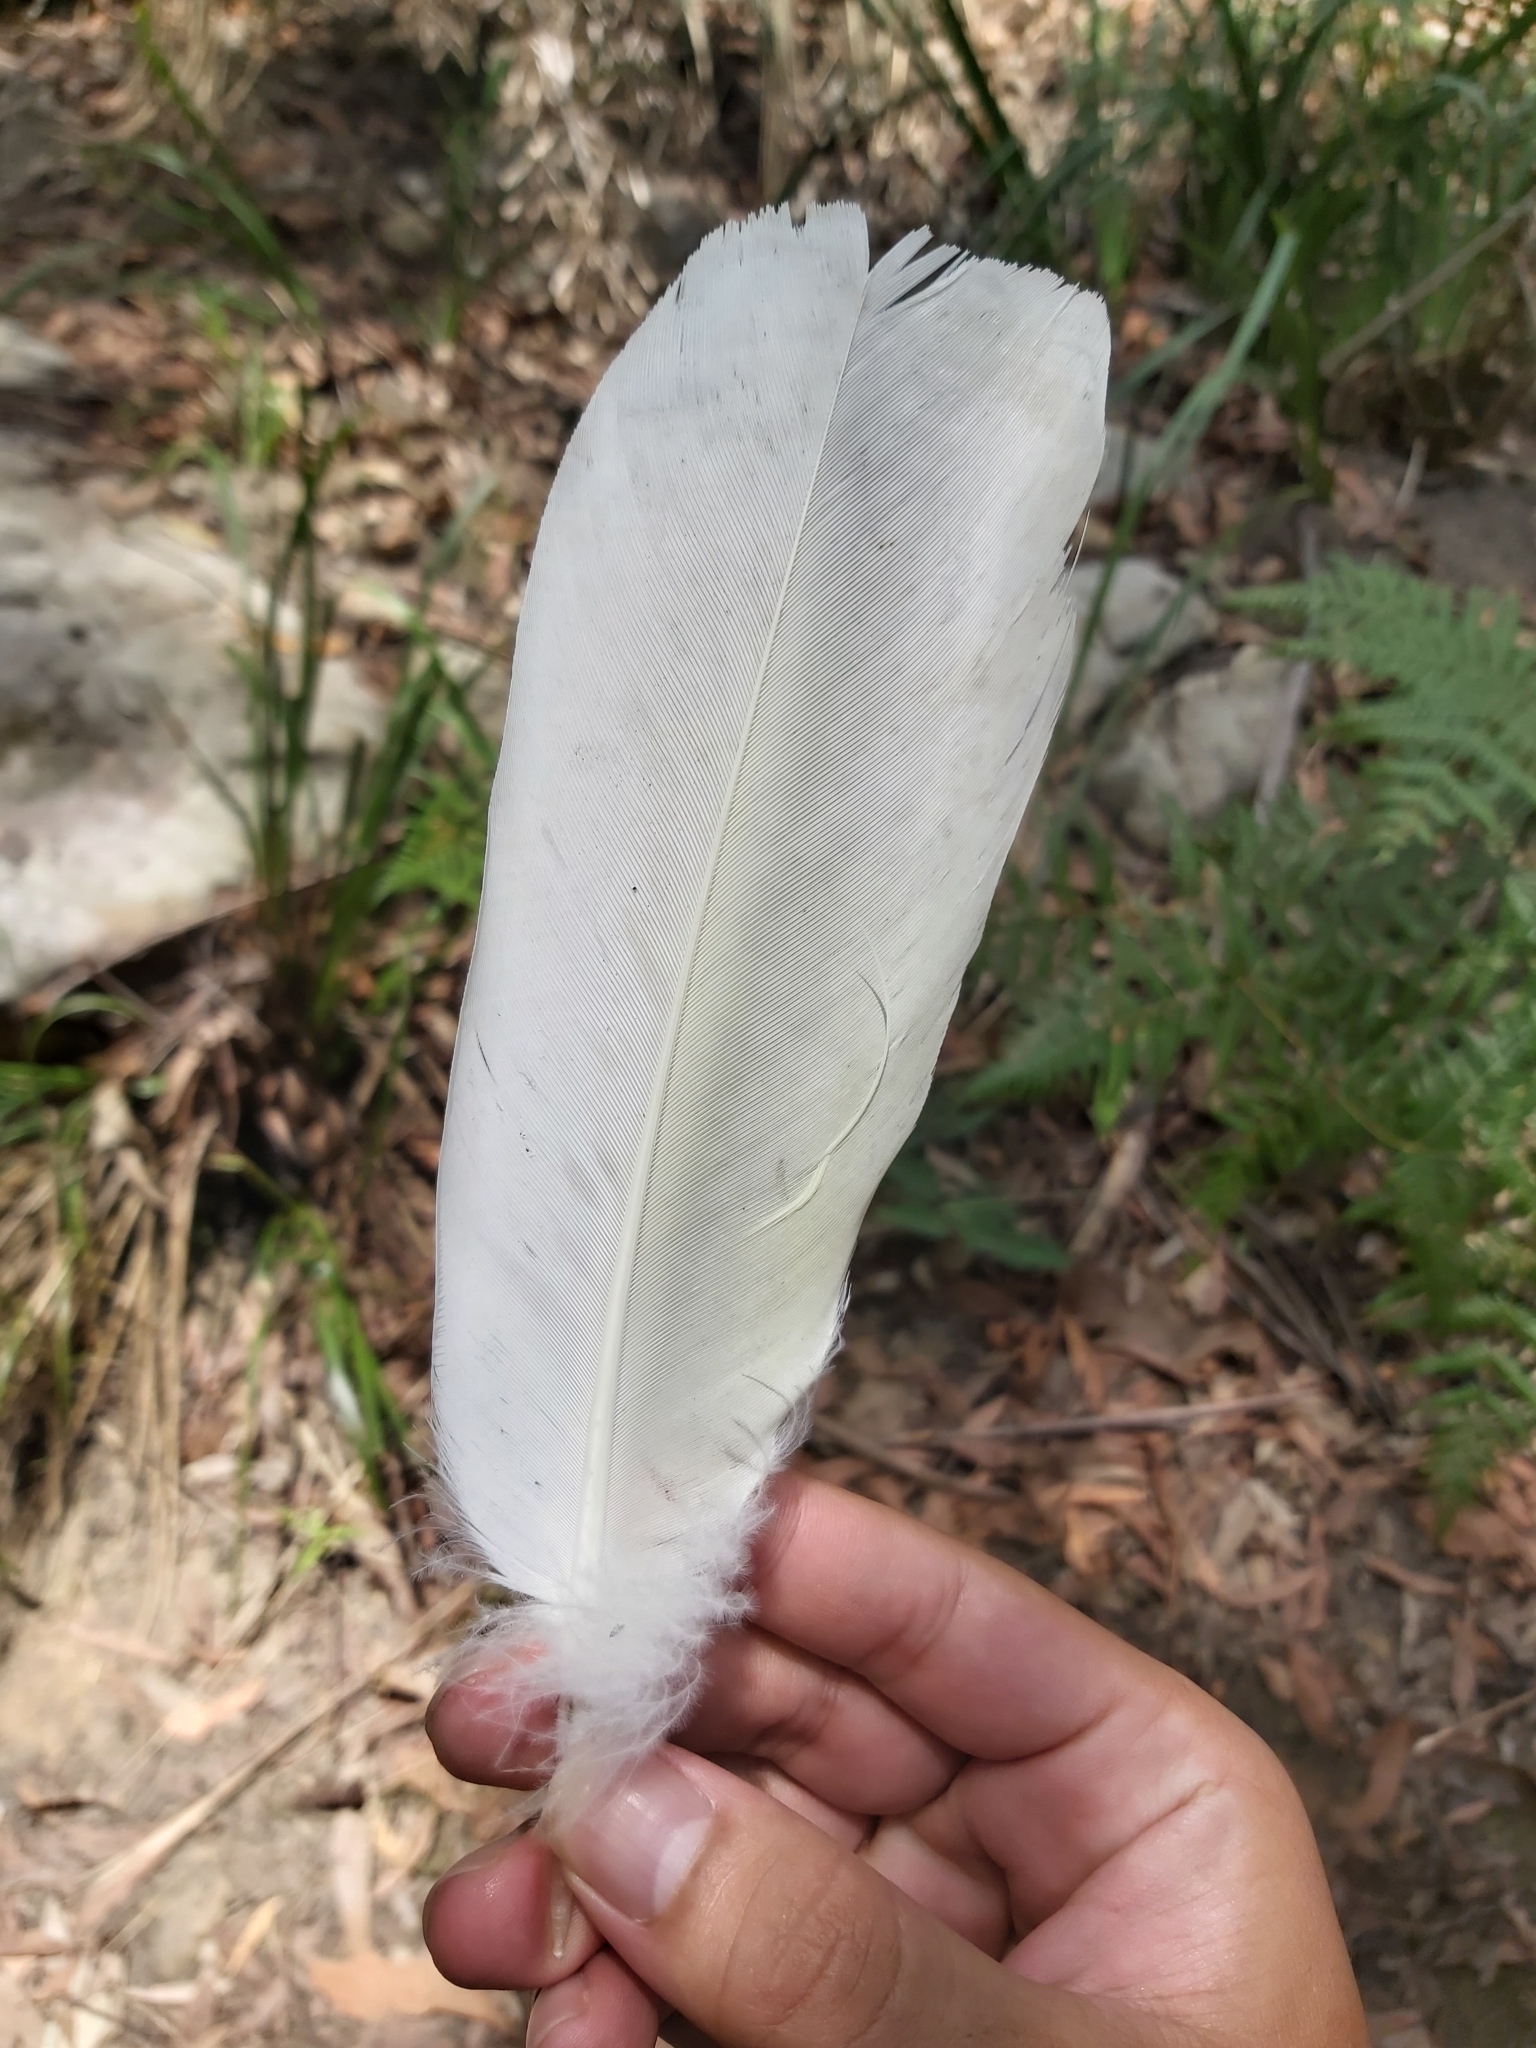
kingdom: Animalia
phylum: Chordata
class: Aves
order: Psittaciformes
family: Psittacidae
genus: Cacatua
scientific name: Cacatua galerita
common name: Sulphur-crested cockatoo
